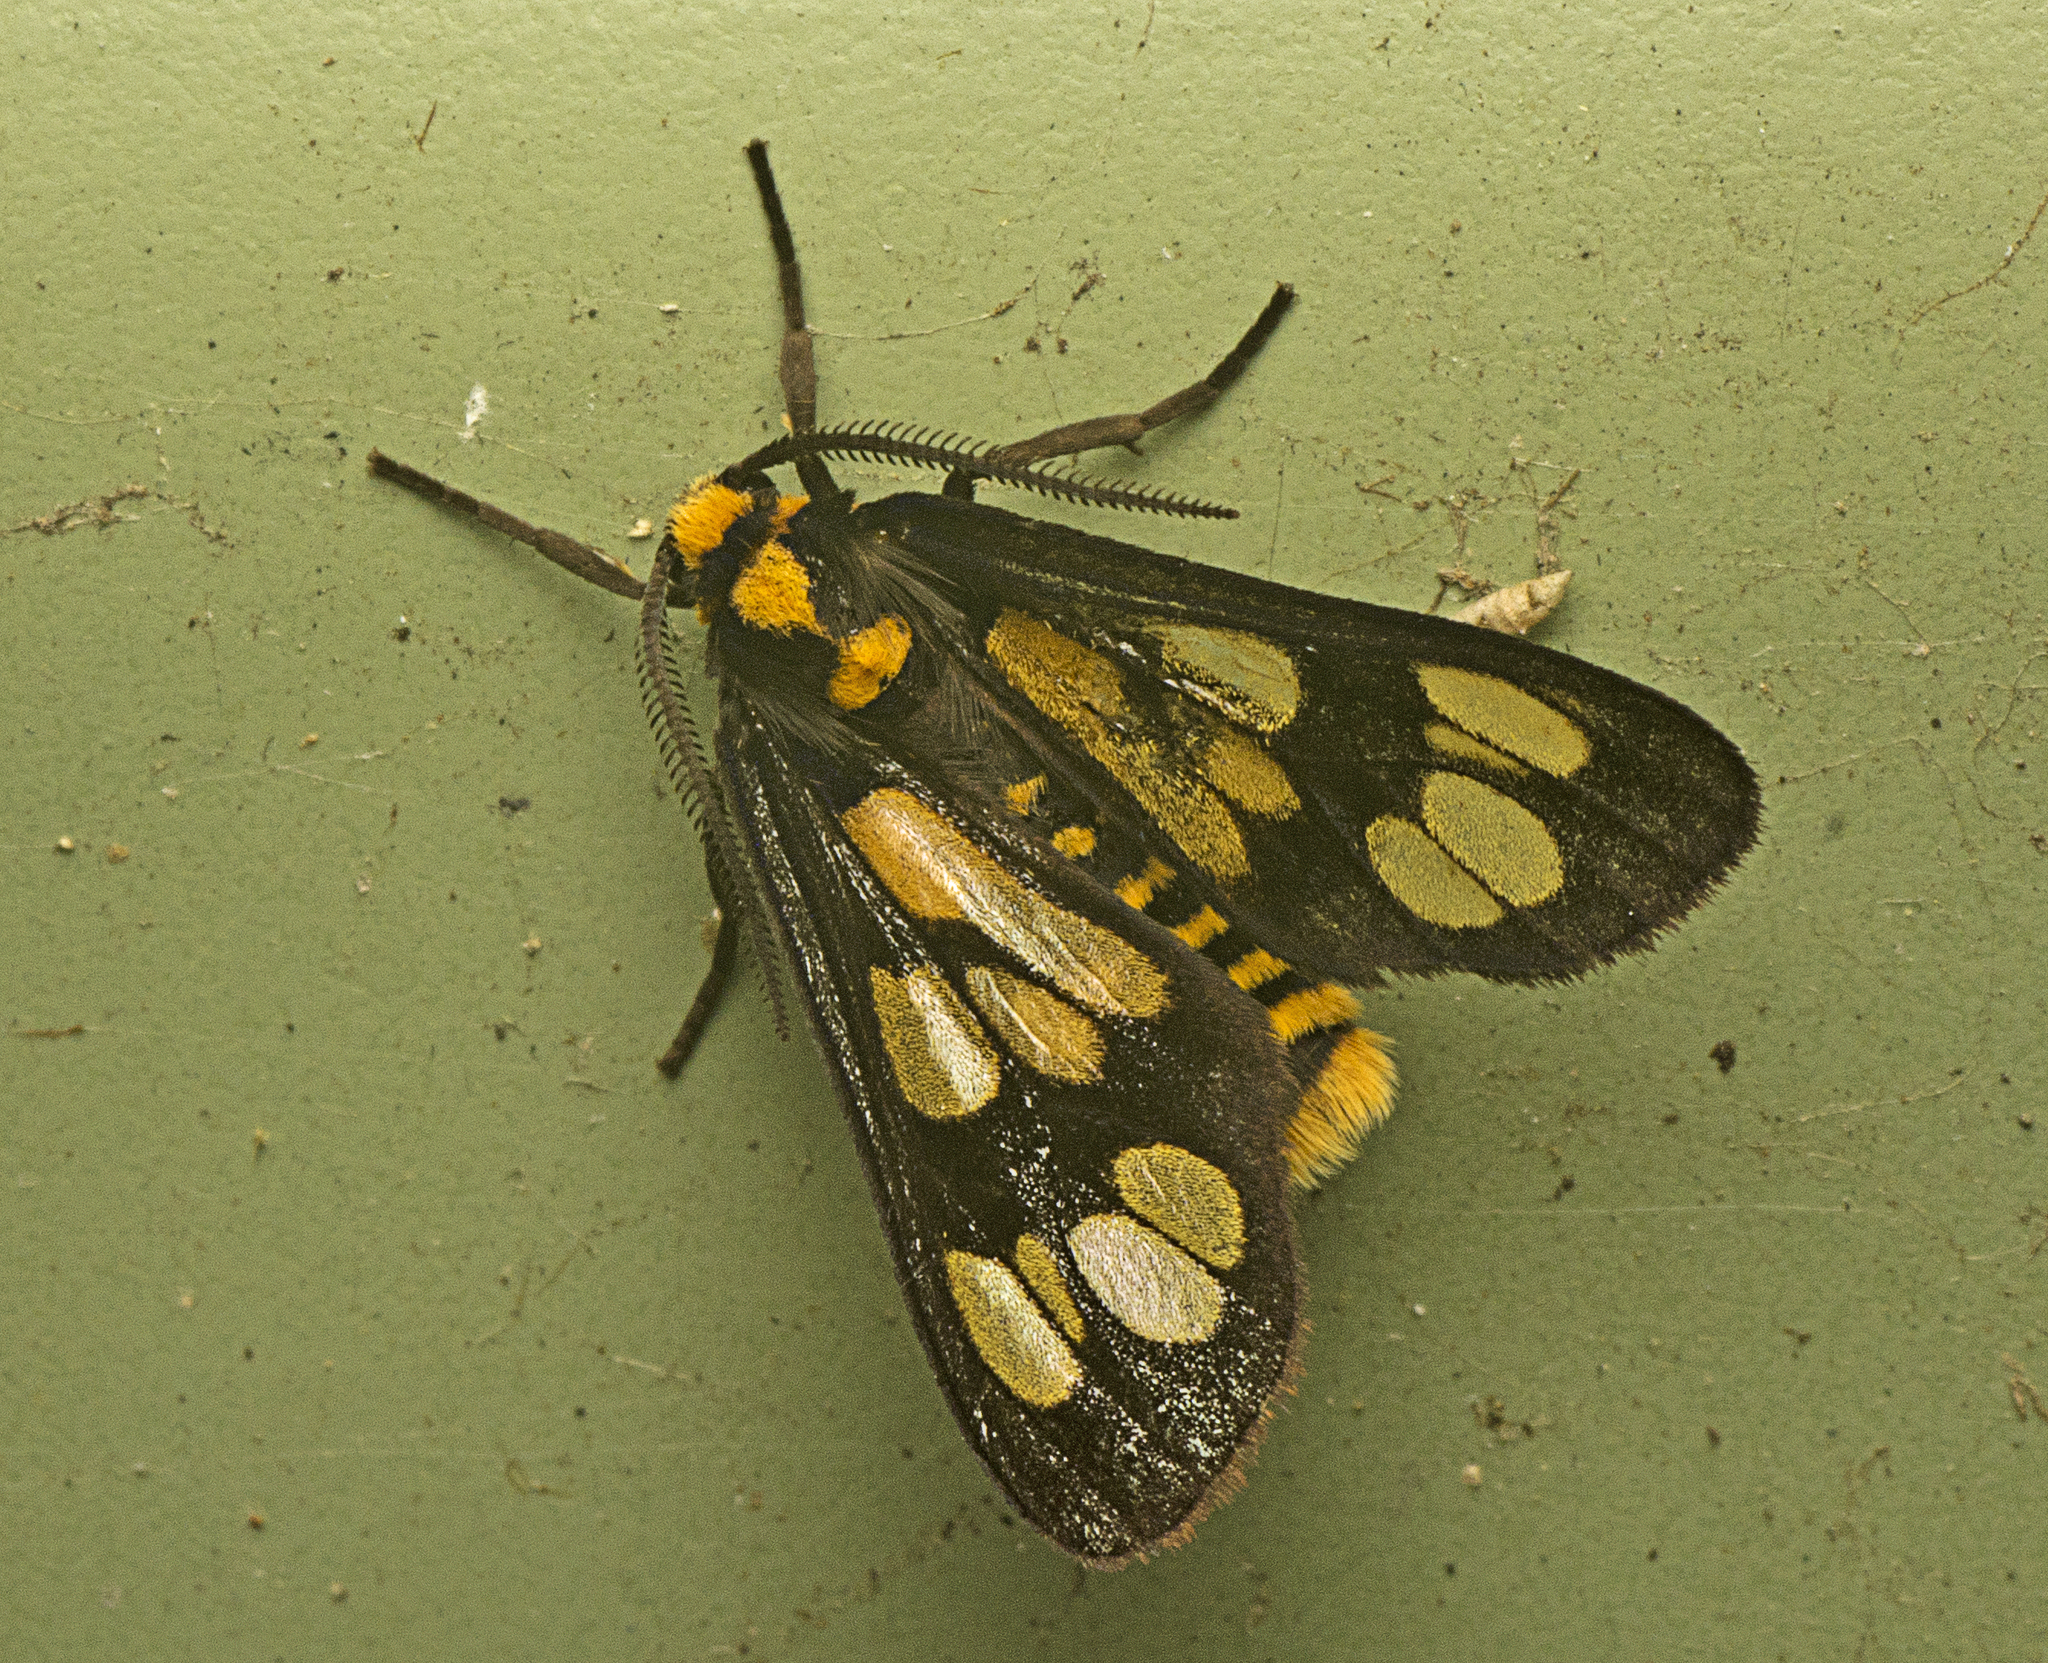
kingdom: Animalia
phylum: Arthropoda
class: Insecta
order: Lepidoptera
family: Erebidae
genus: Eressa
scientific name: Eressa geographica
